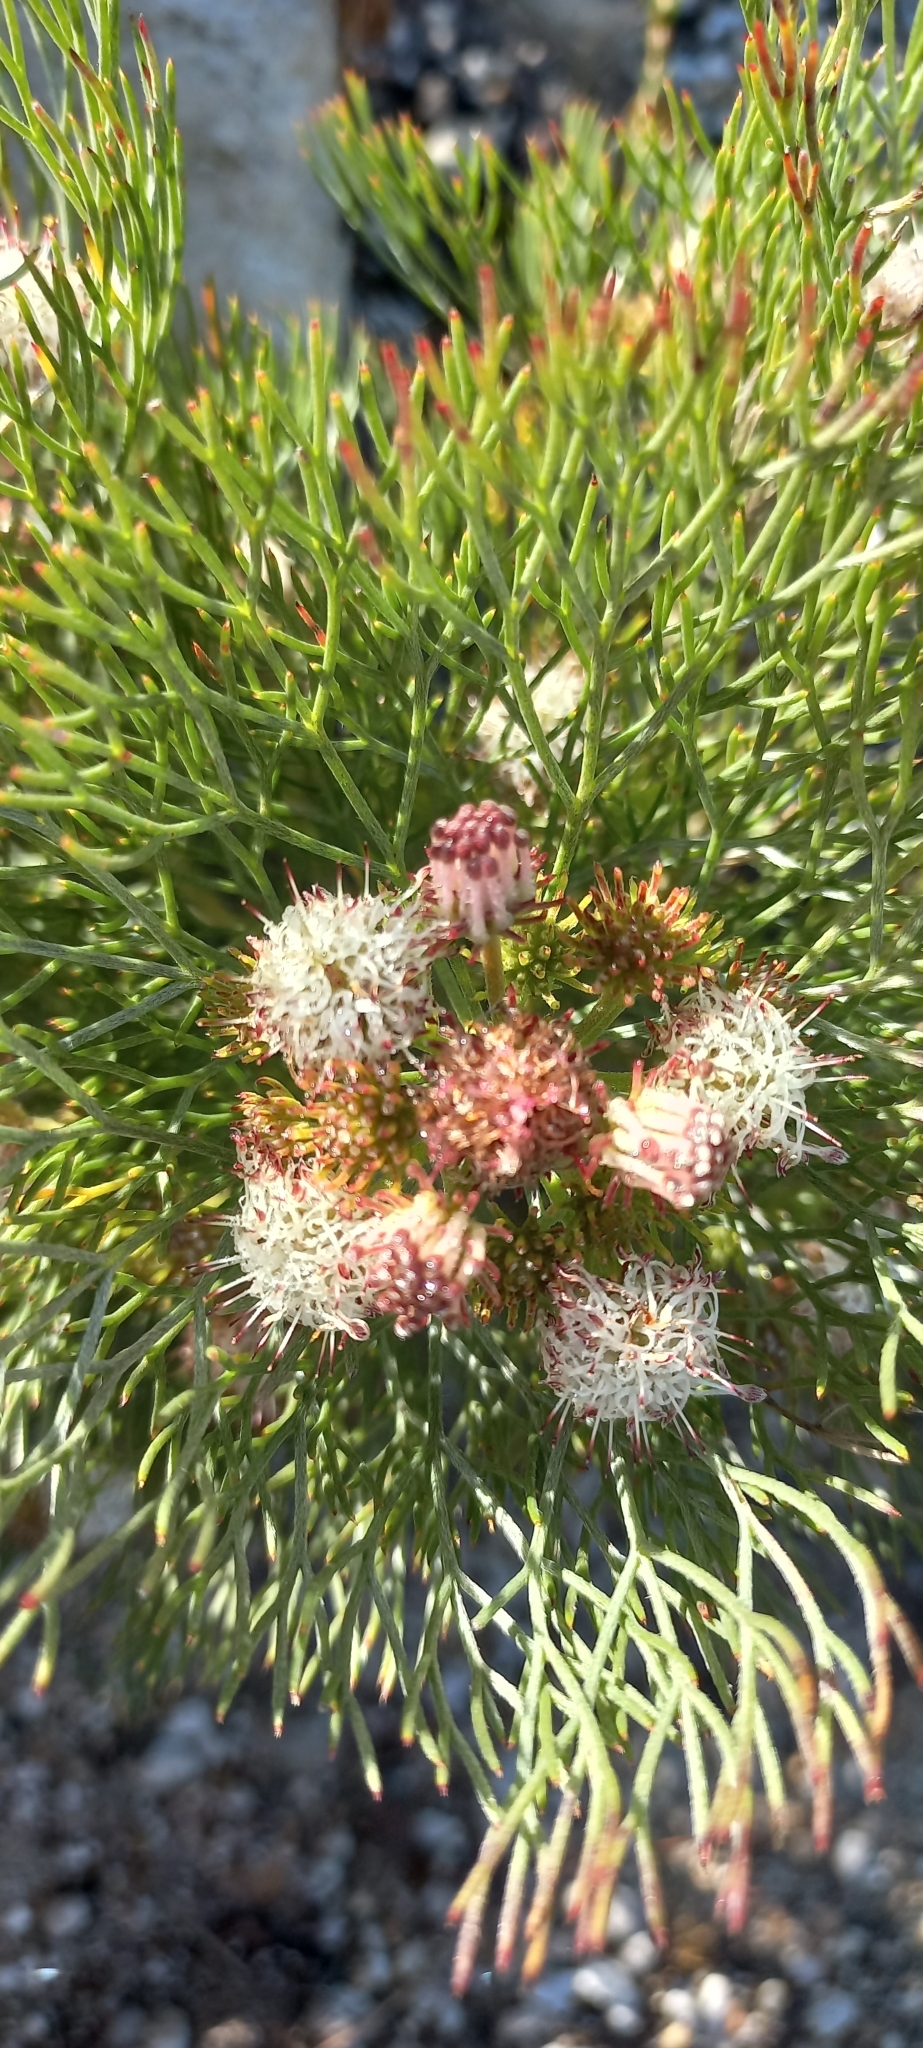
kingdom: Plantae
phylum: Tracheophyta
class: Magnoliopsida
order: Proteales
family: Proteaceae
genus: Serruria
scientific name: Serruria fasciflora
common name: Common pin spiderhead
